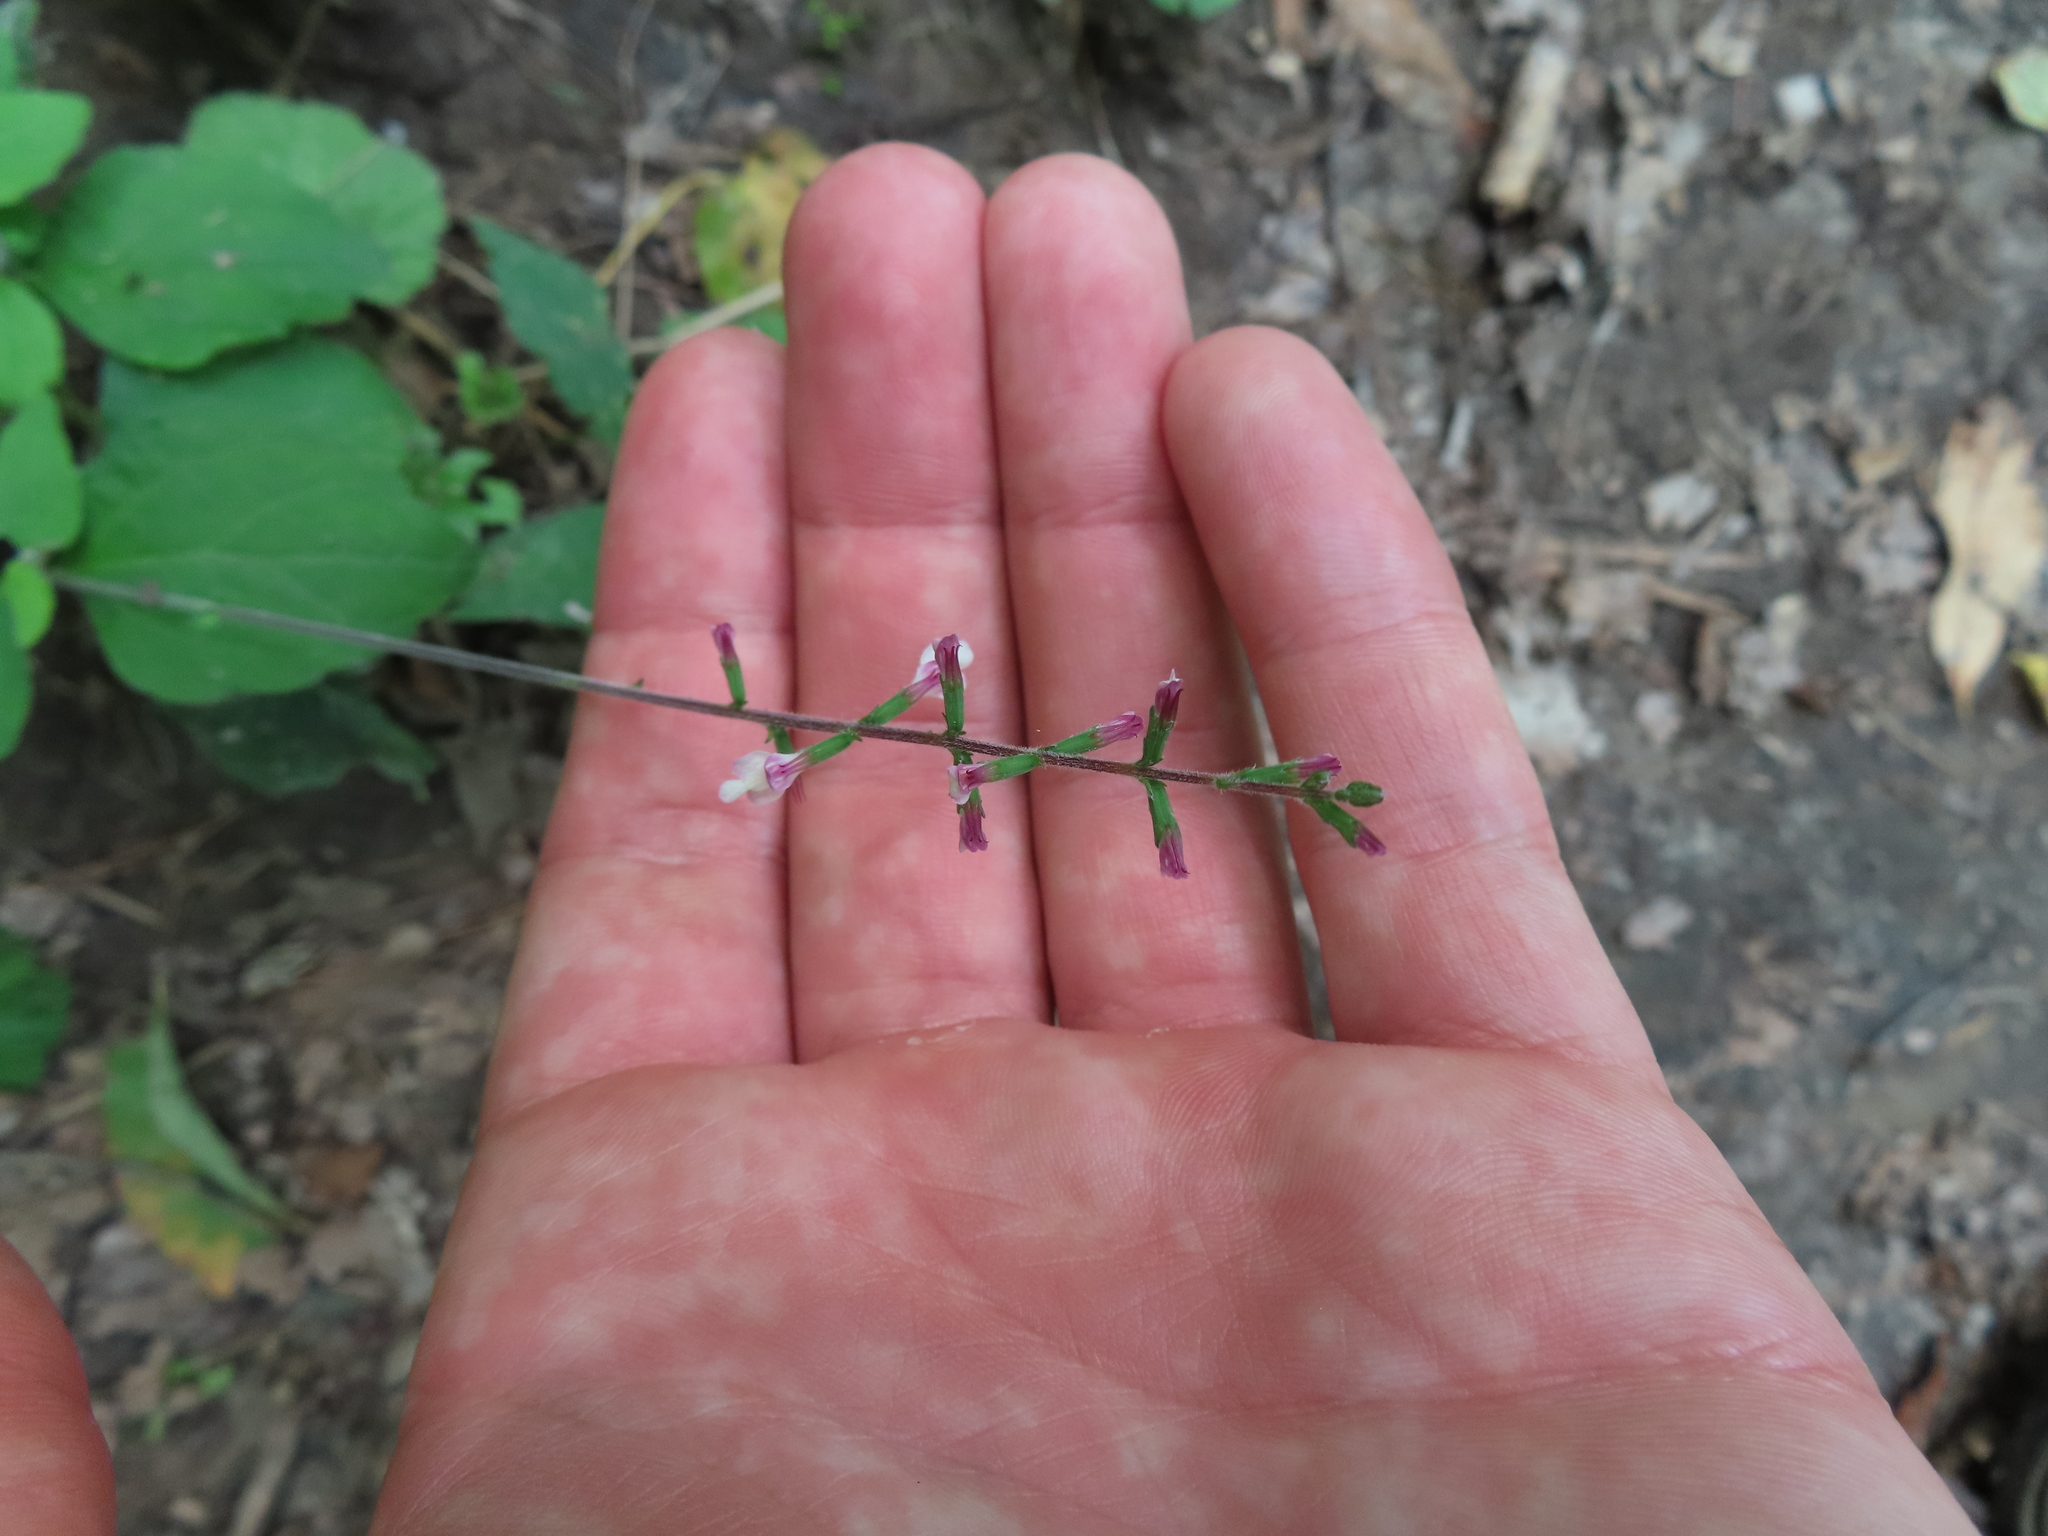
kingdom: Plantae
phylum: Tracheophyta
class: Magnoliopsida
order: Lamiales
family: Phrymaceae
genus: Phryma
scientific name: Phryma leptostachya
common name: American lopseed
